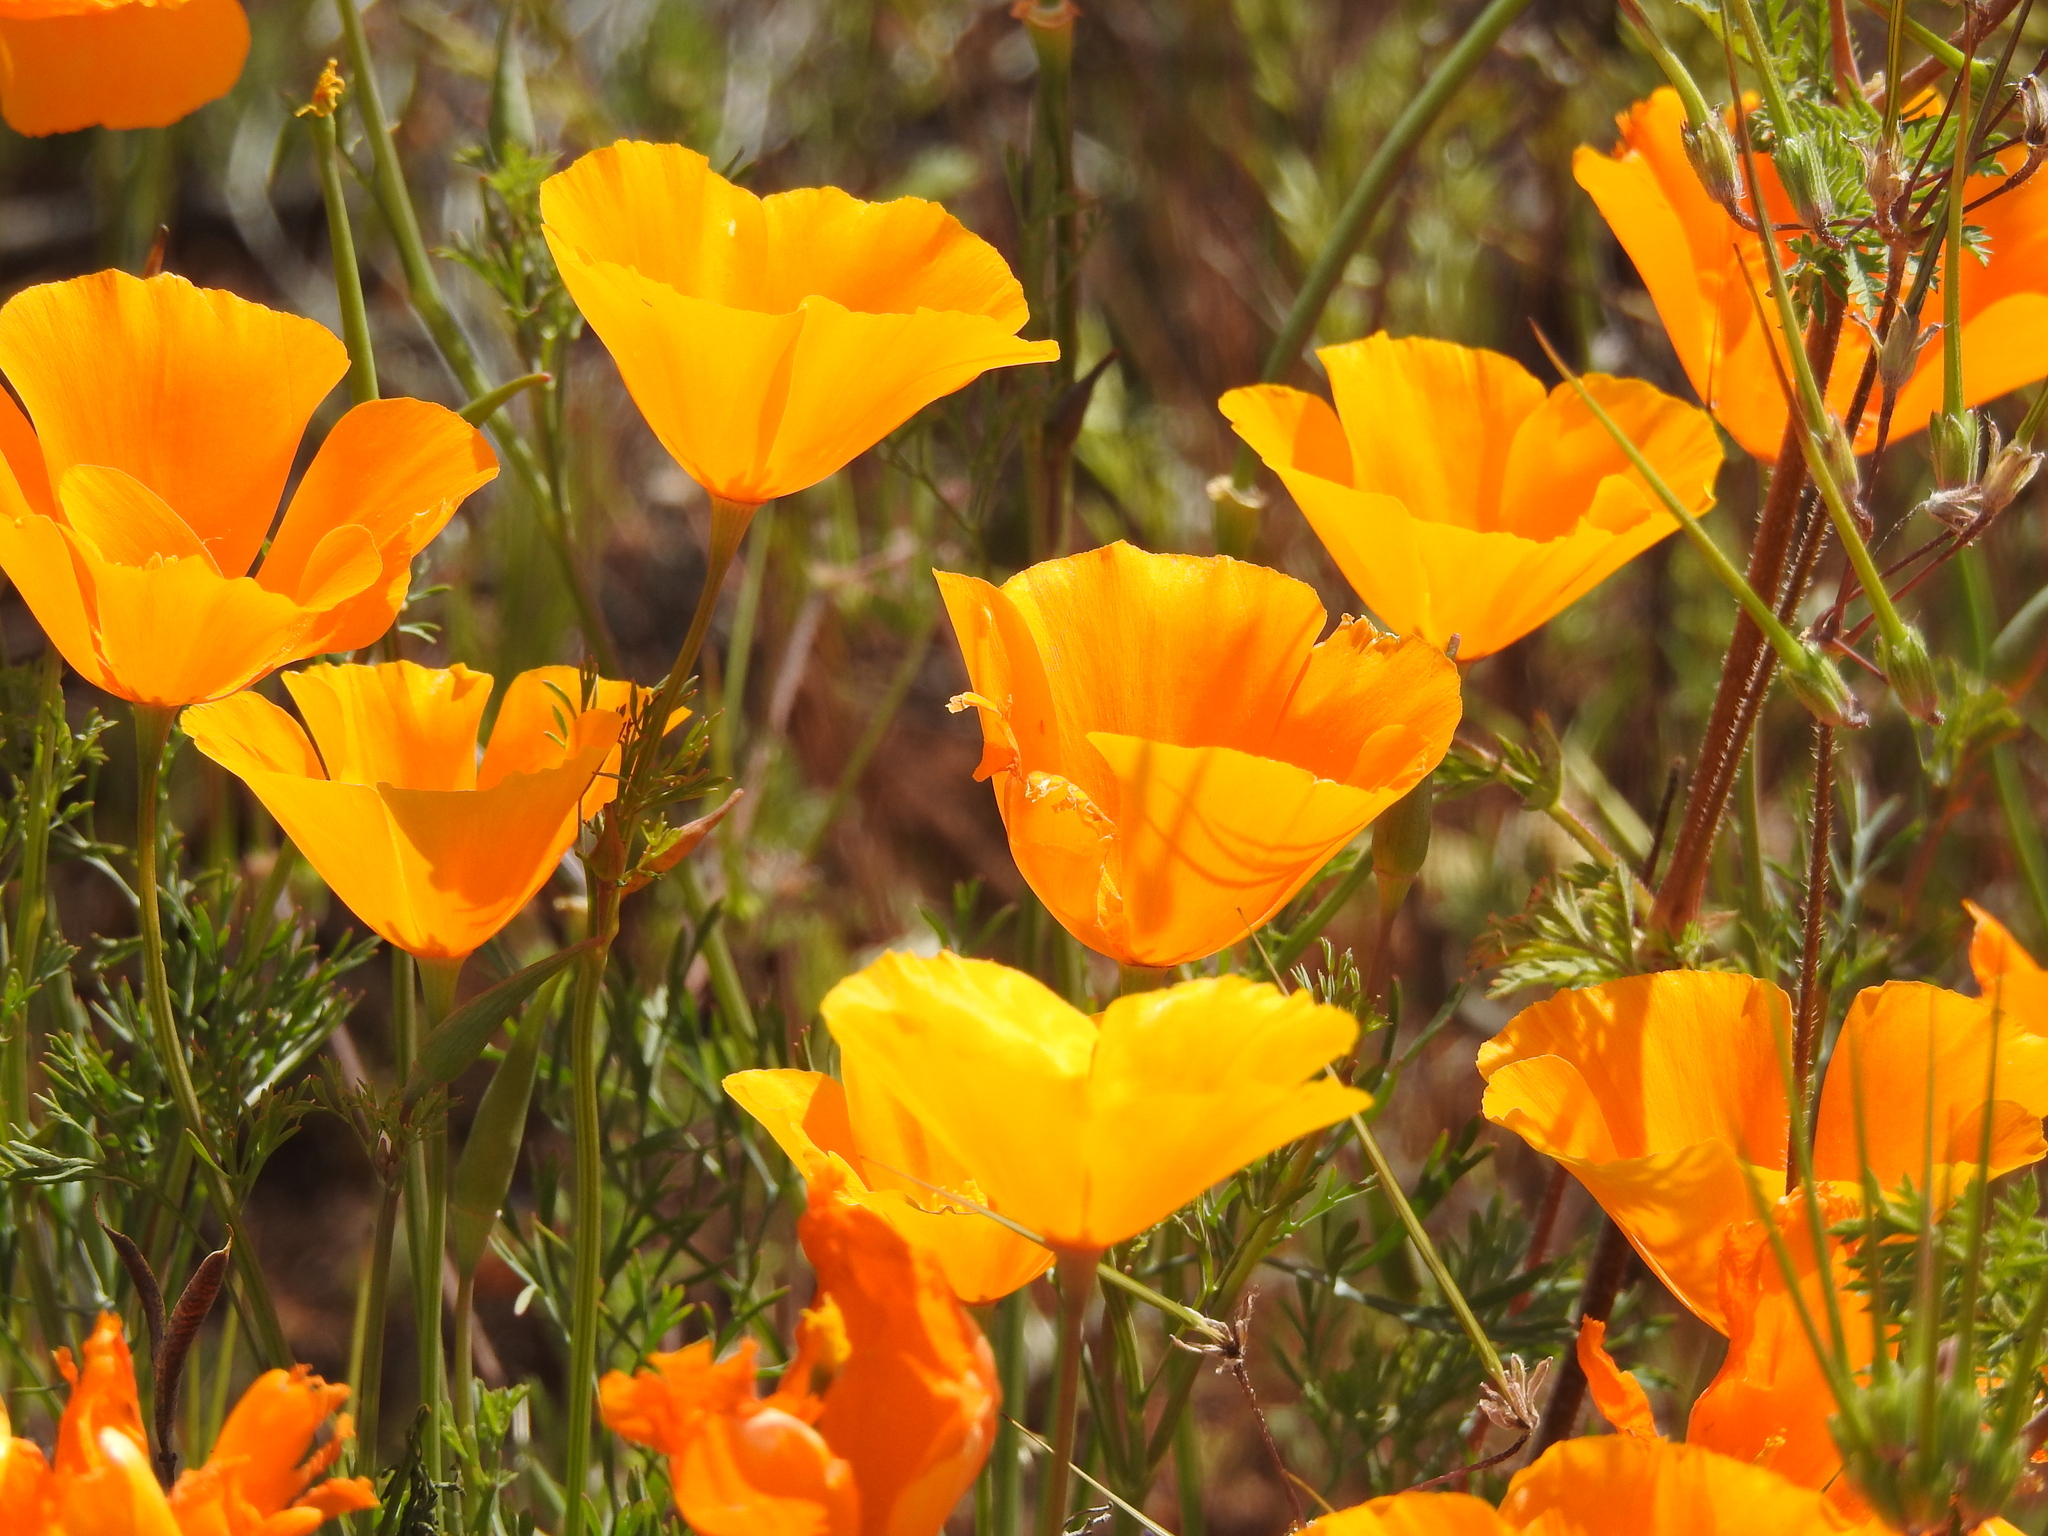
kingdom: Plantae
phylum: Tracheophyta
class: Magnoliopsida
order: Ranunculales
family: Papaveraceae
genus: Eschscholzia
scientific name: Eschscholzia californica
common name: California poppy
